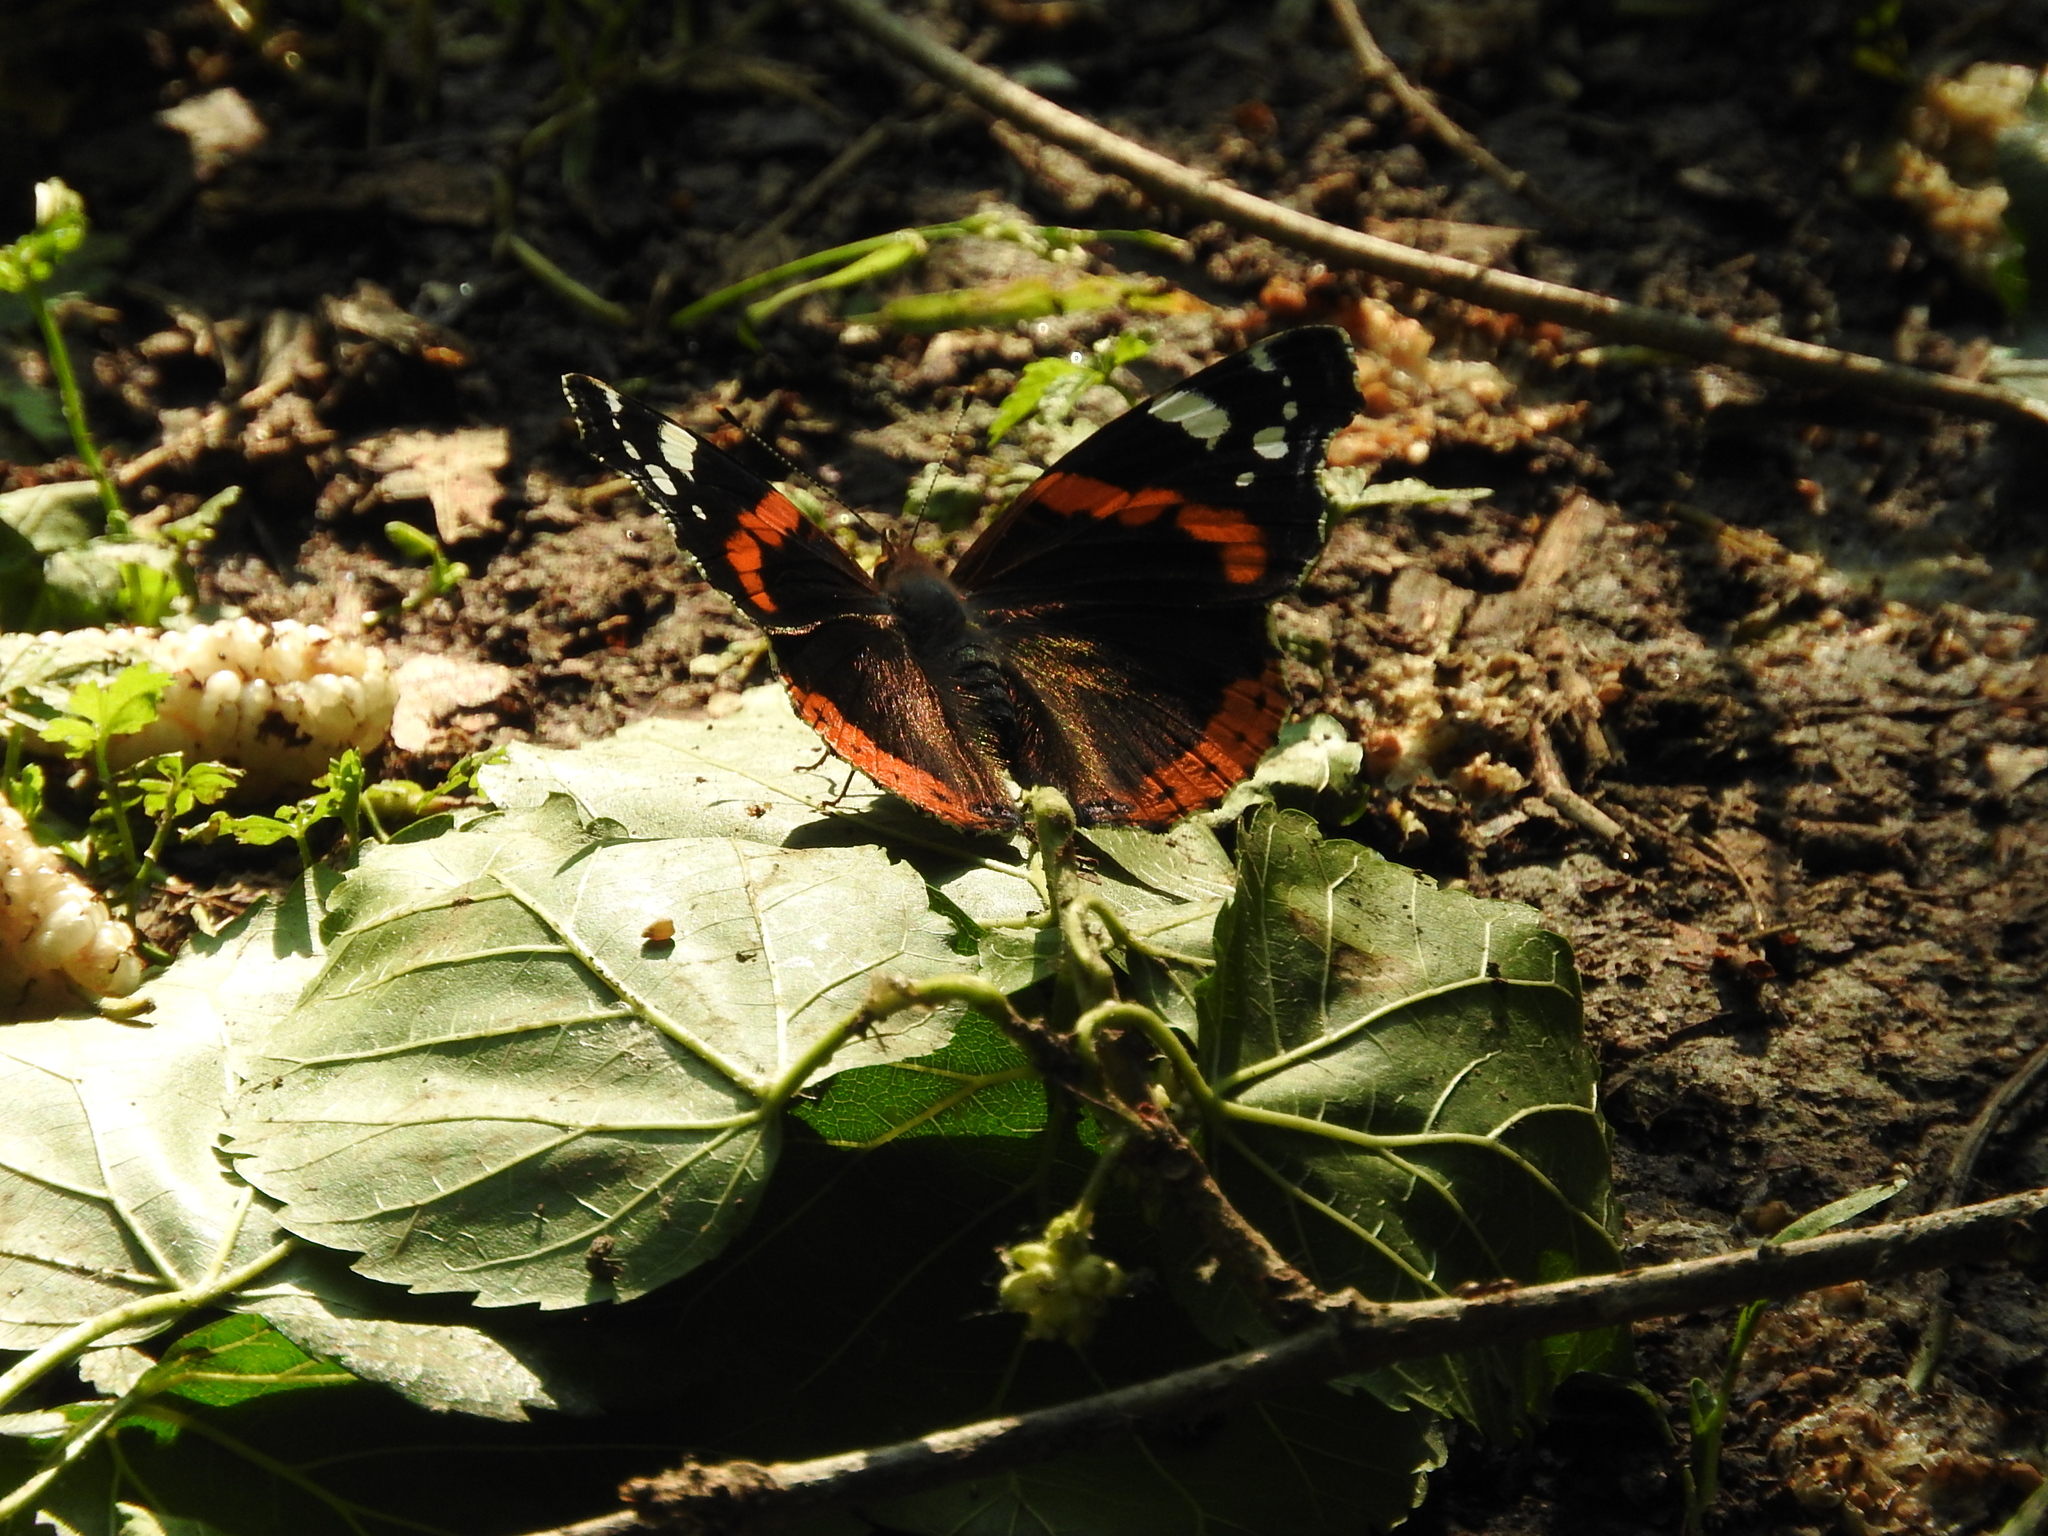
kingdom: Animalia
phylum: Arthropoda
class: Insecta
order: Lepidoptera
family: Nymphalidae
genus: Vanessa
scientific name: Vanessa atalanta
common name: Red admiral
